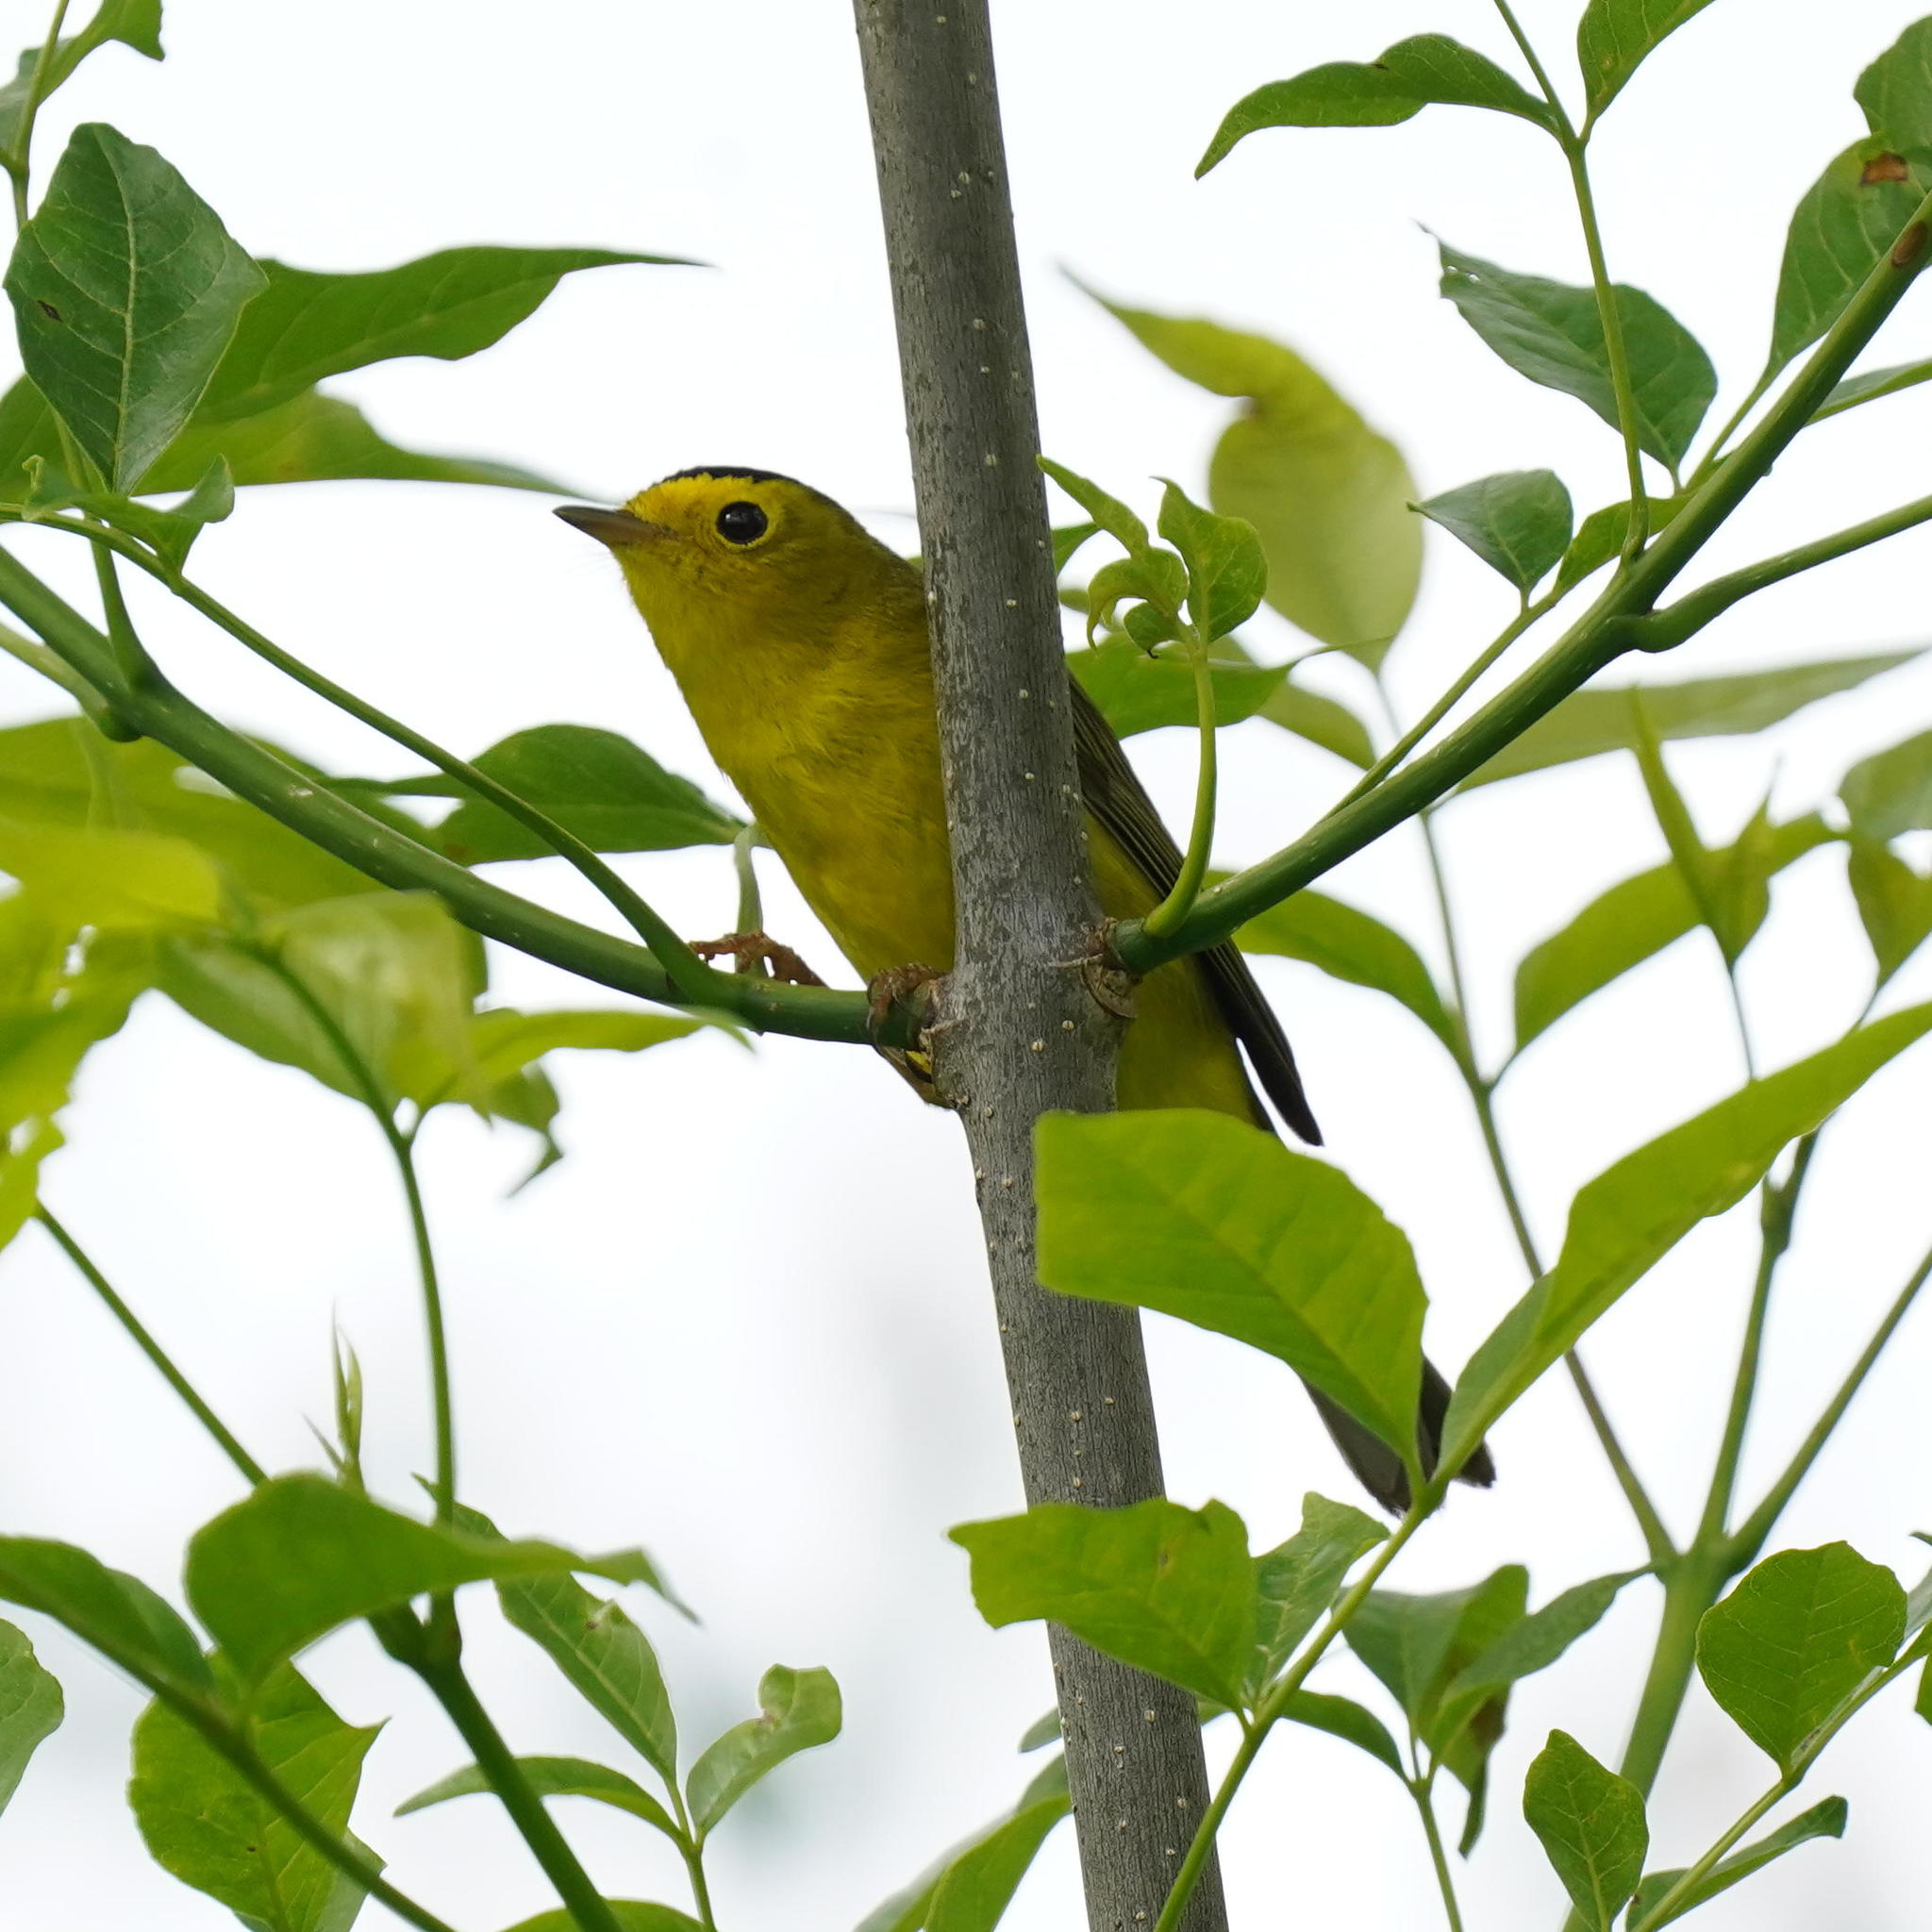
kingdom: Animalia
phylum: Chordata
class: Aves
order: Passeriformes
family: Parulidae
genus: Cardellina
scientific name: Cardellina pusilla
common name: Wilson's warbler
